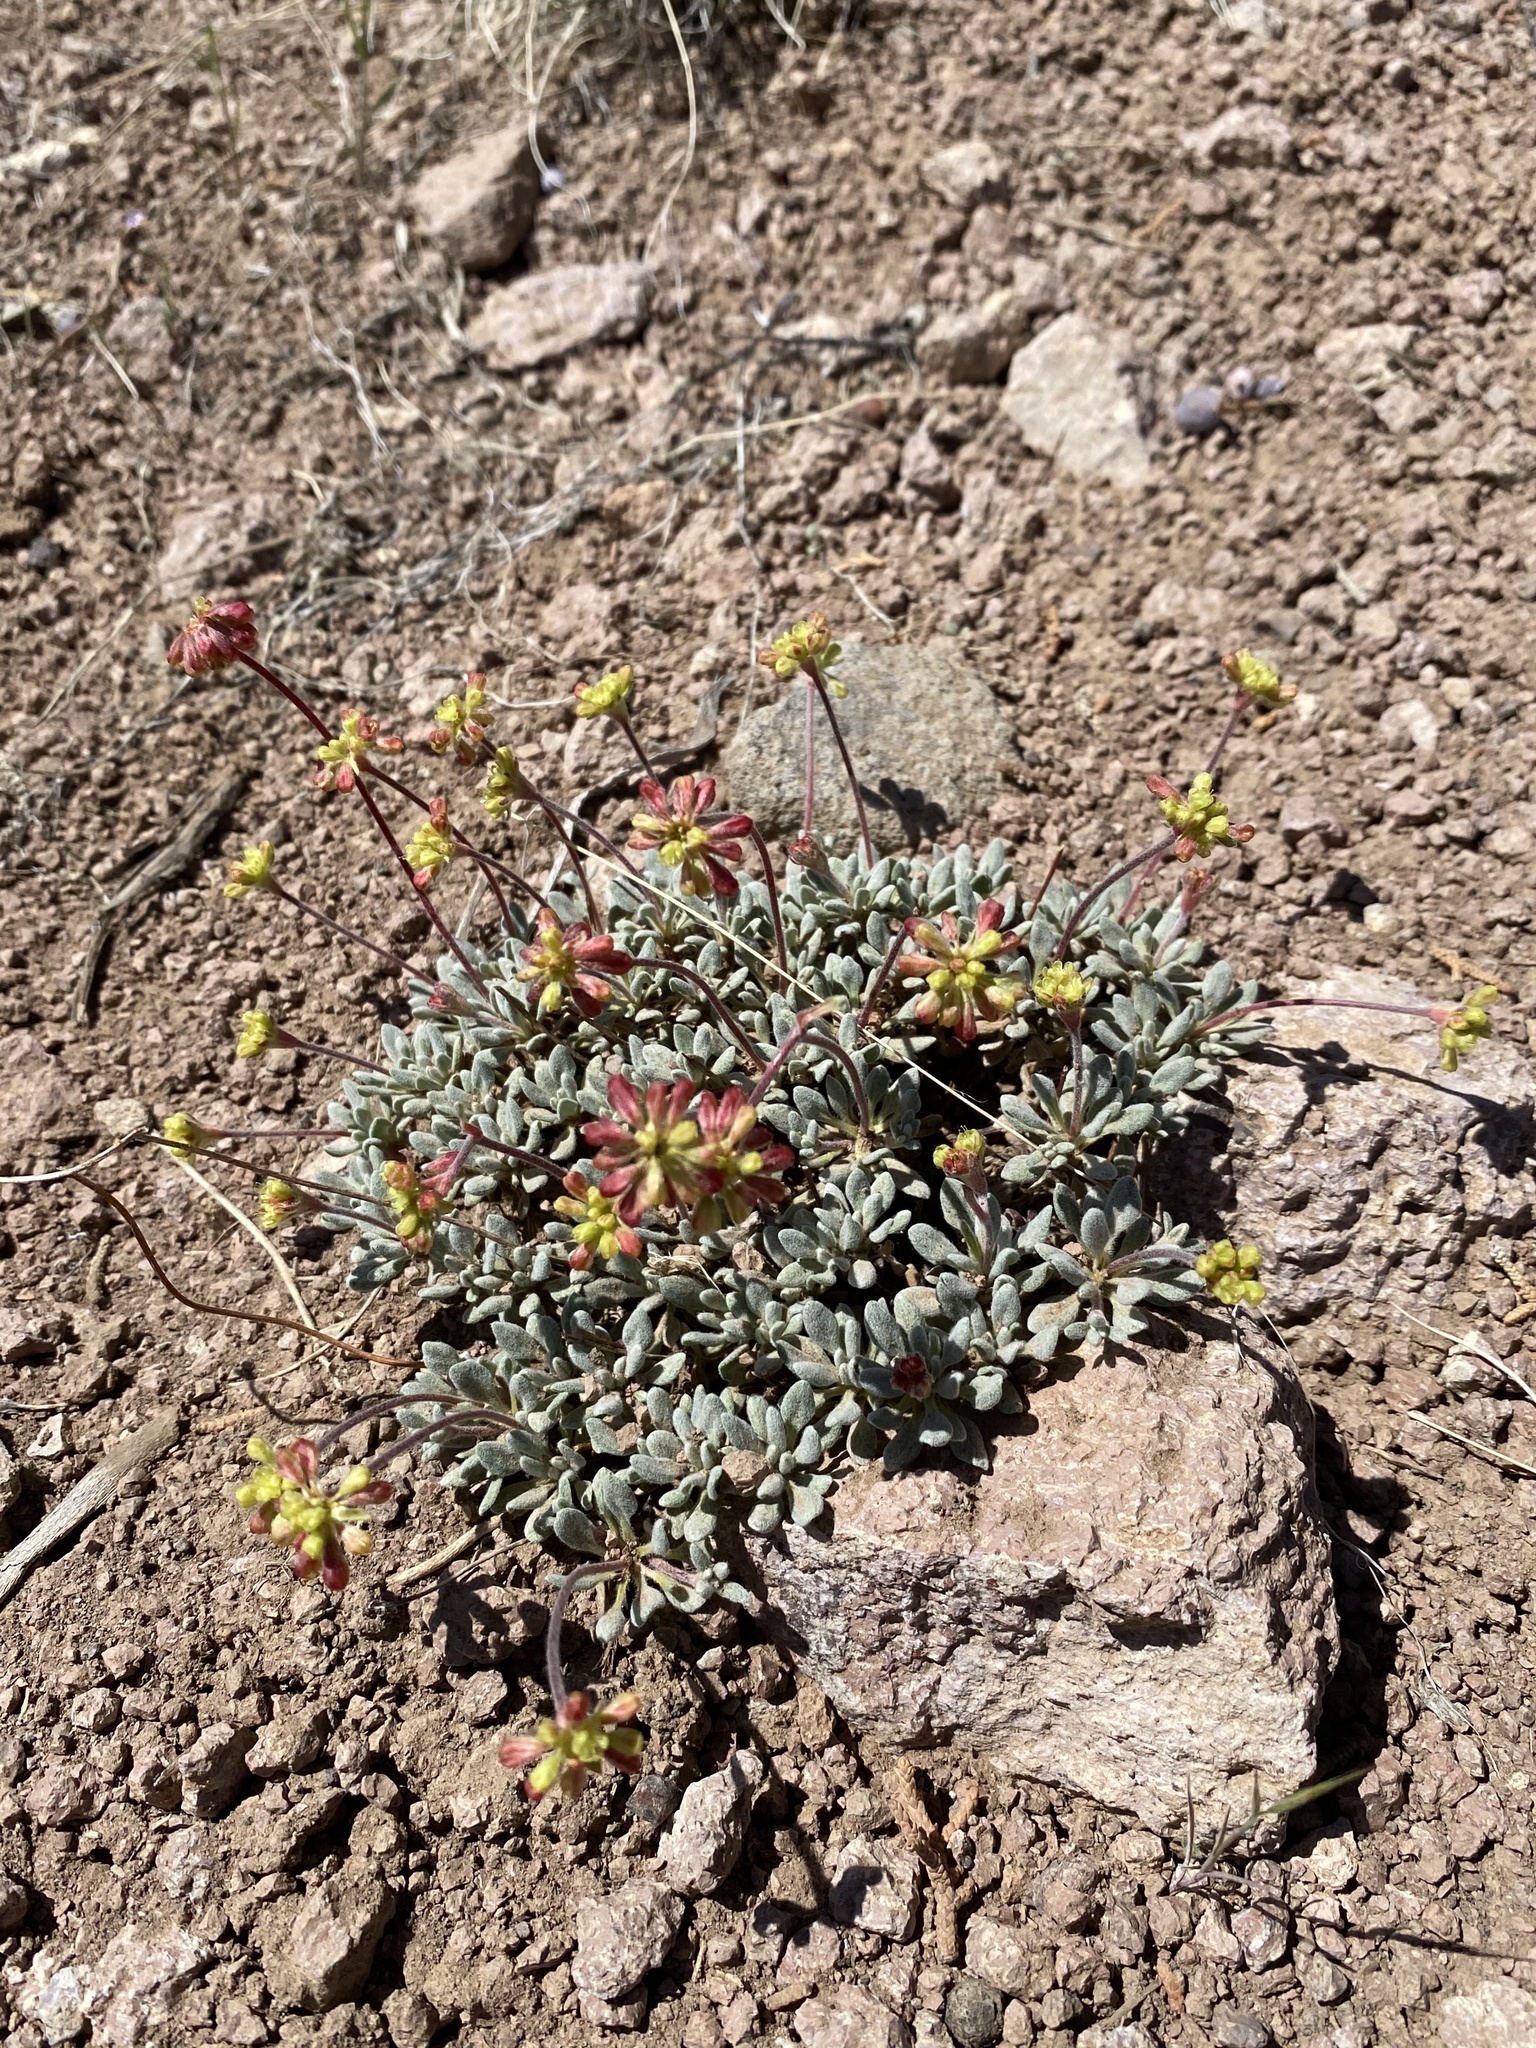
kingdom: Plantae
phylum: Tracheophyta
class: Magnoliopsida
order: Caryophyllales
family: Polygonaceae
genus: Eriogonum
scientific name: Eriogonum caespitosum
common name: Matted wild buckwheat
